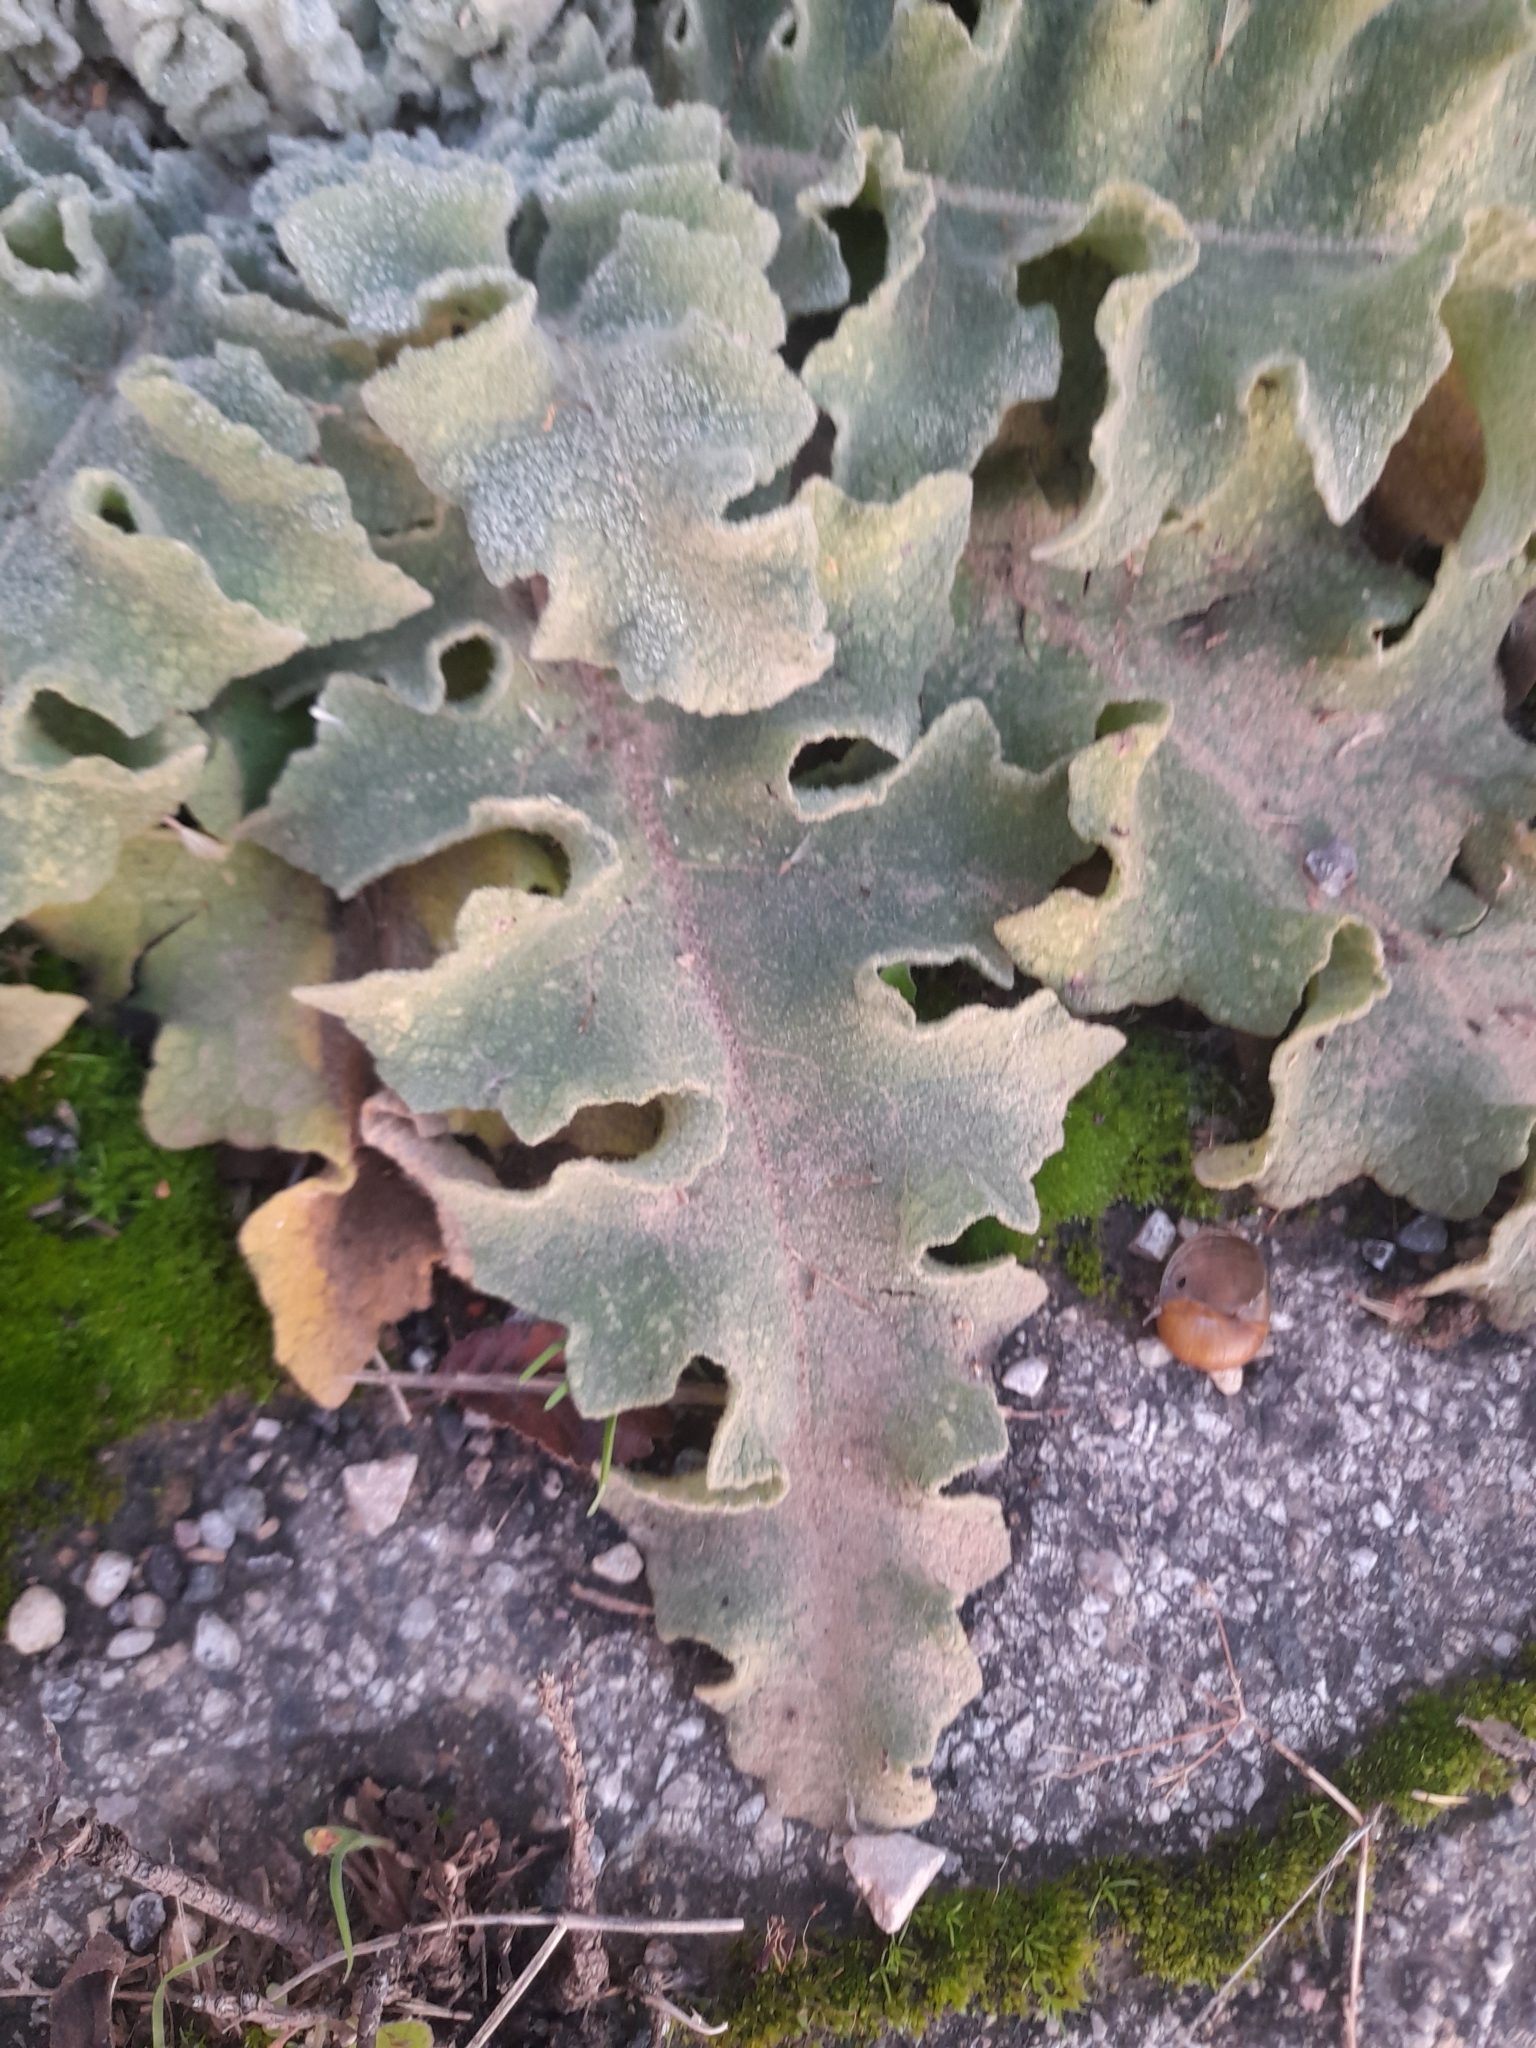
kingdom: Plantae
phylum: Tracheophyta
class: Magnoliopsida
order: Lamiales
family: Scrophulariaceae
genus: Verbascum
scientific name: Verbascum sinuatum
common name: Wavyleaf mullein
